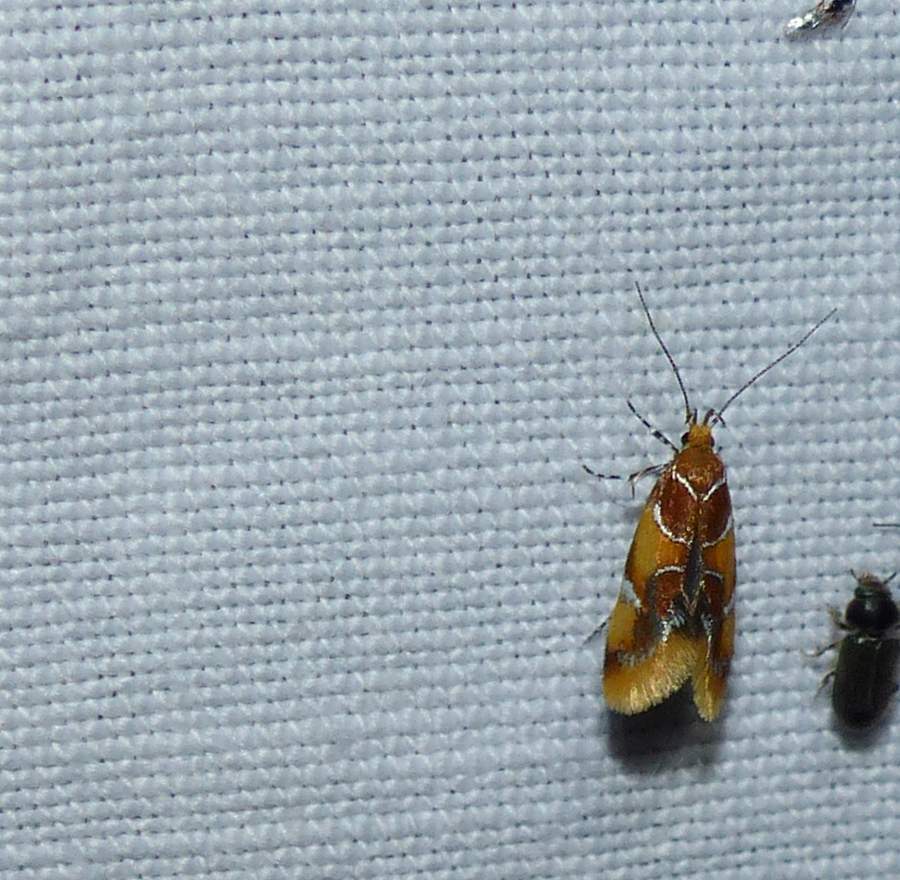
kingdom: Animalia
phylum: Arthropoda
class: Insecta
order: Lepidoptera
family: Oecophoridae
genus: Callima
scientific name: Callima argenticinctella
